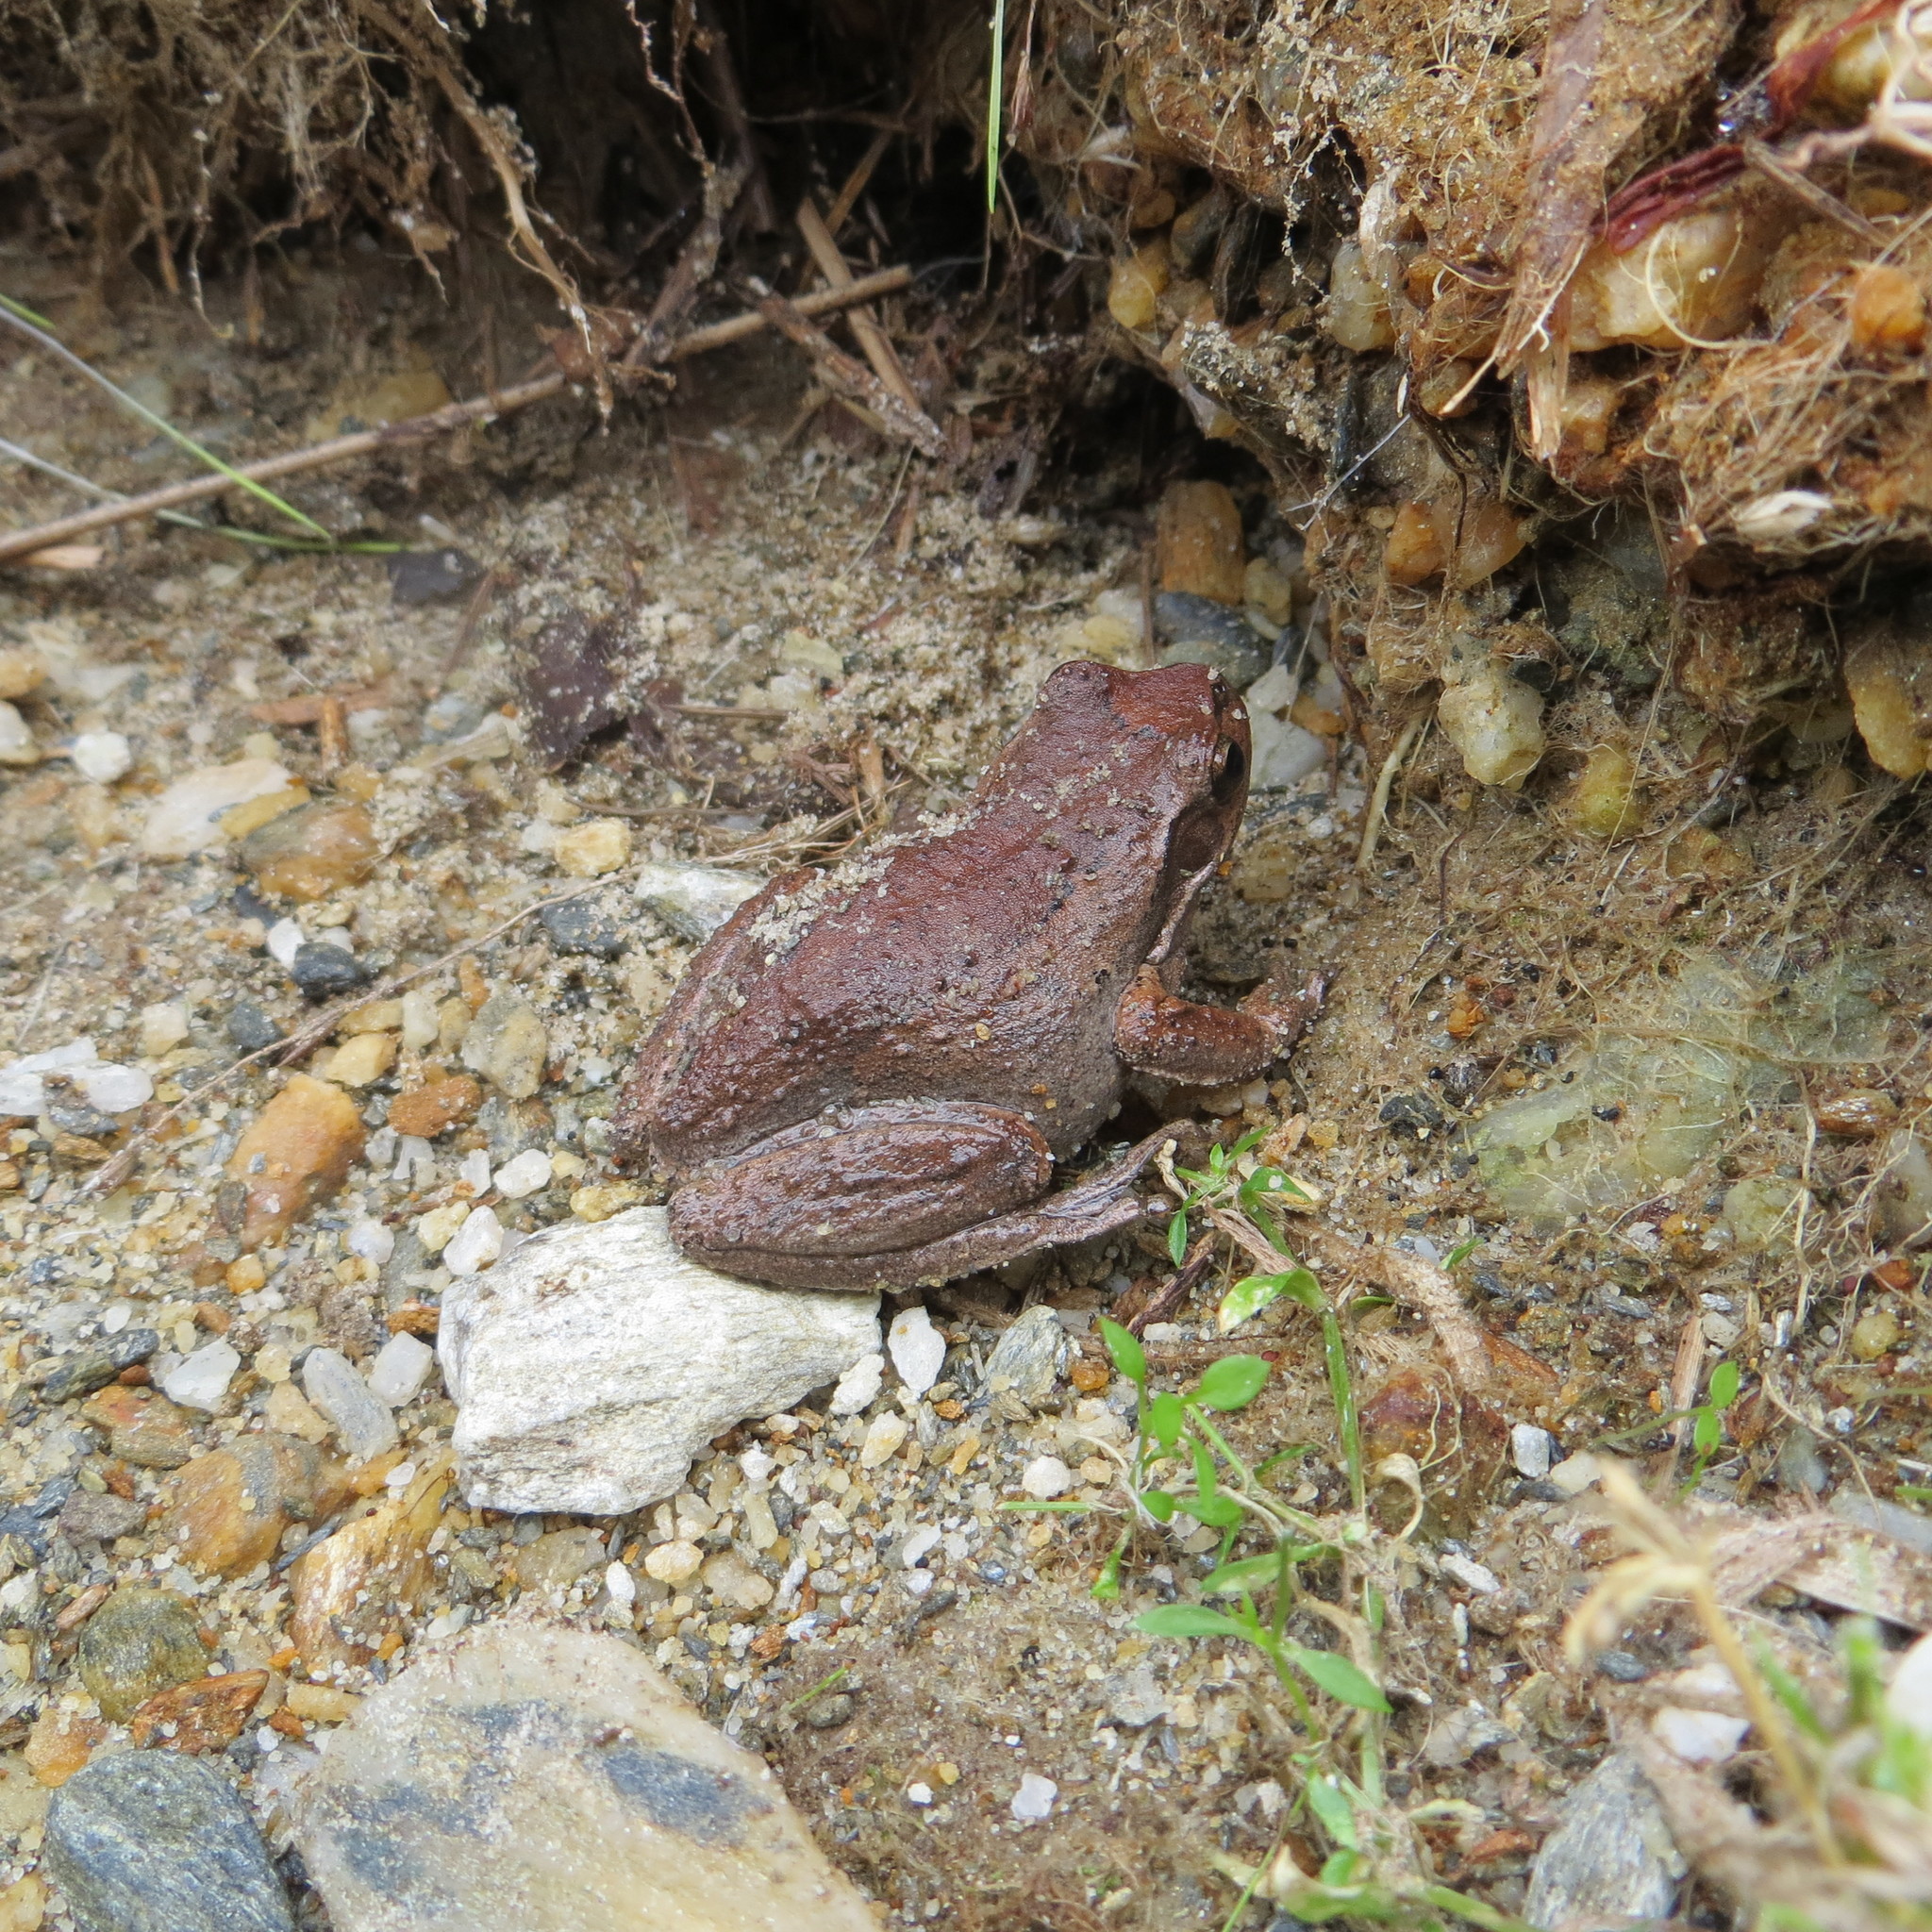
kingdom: Animalia
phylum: Chordata
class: Amphibia
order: Anura
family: Pelodryadidae
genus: Litoria
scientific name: Litoria ewingii
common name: Southern brown tree frog
